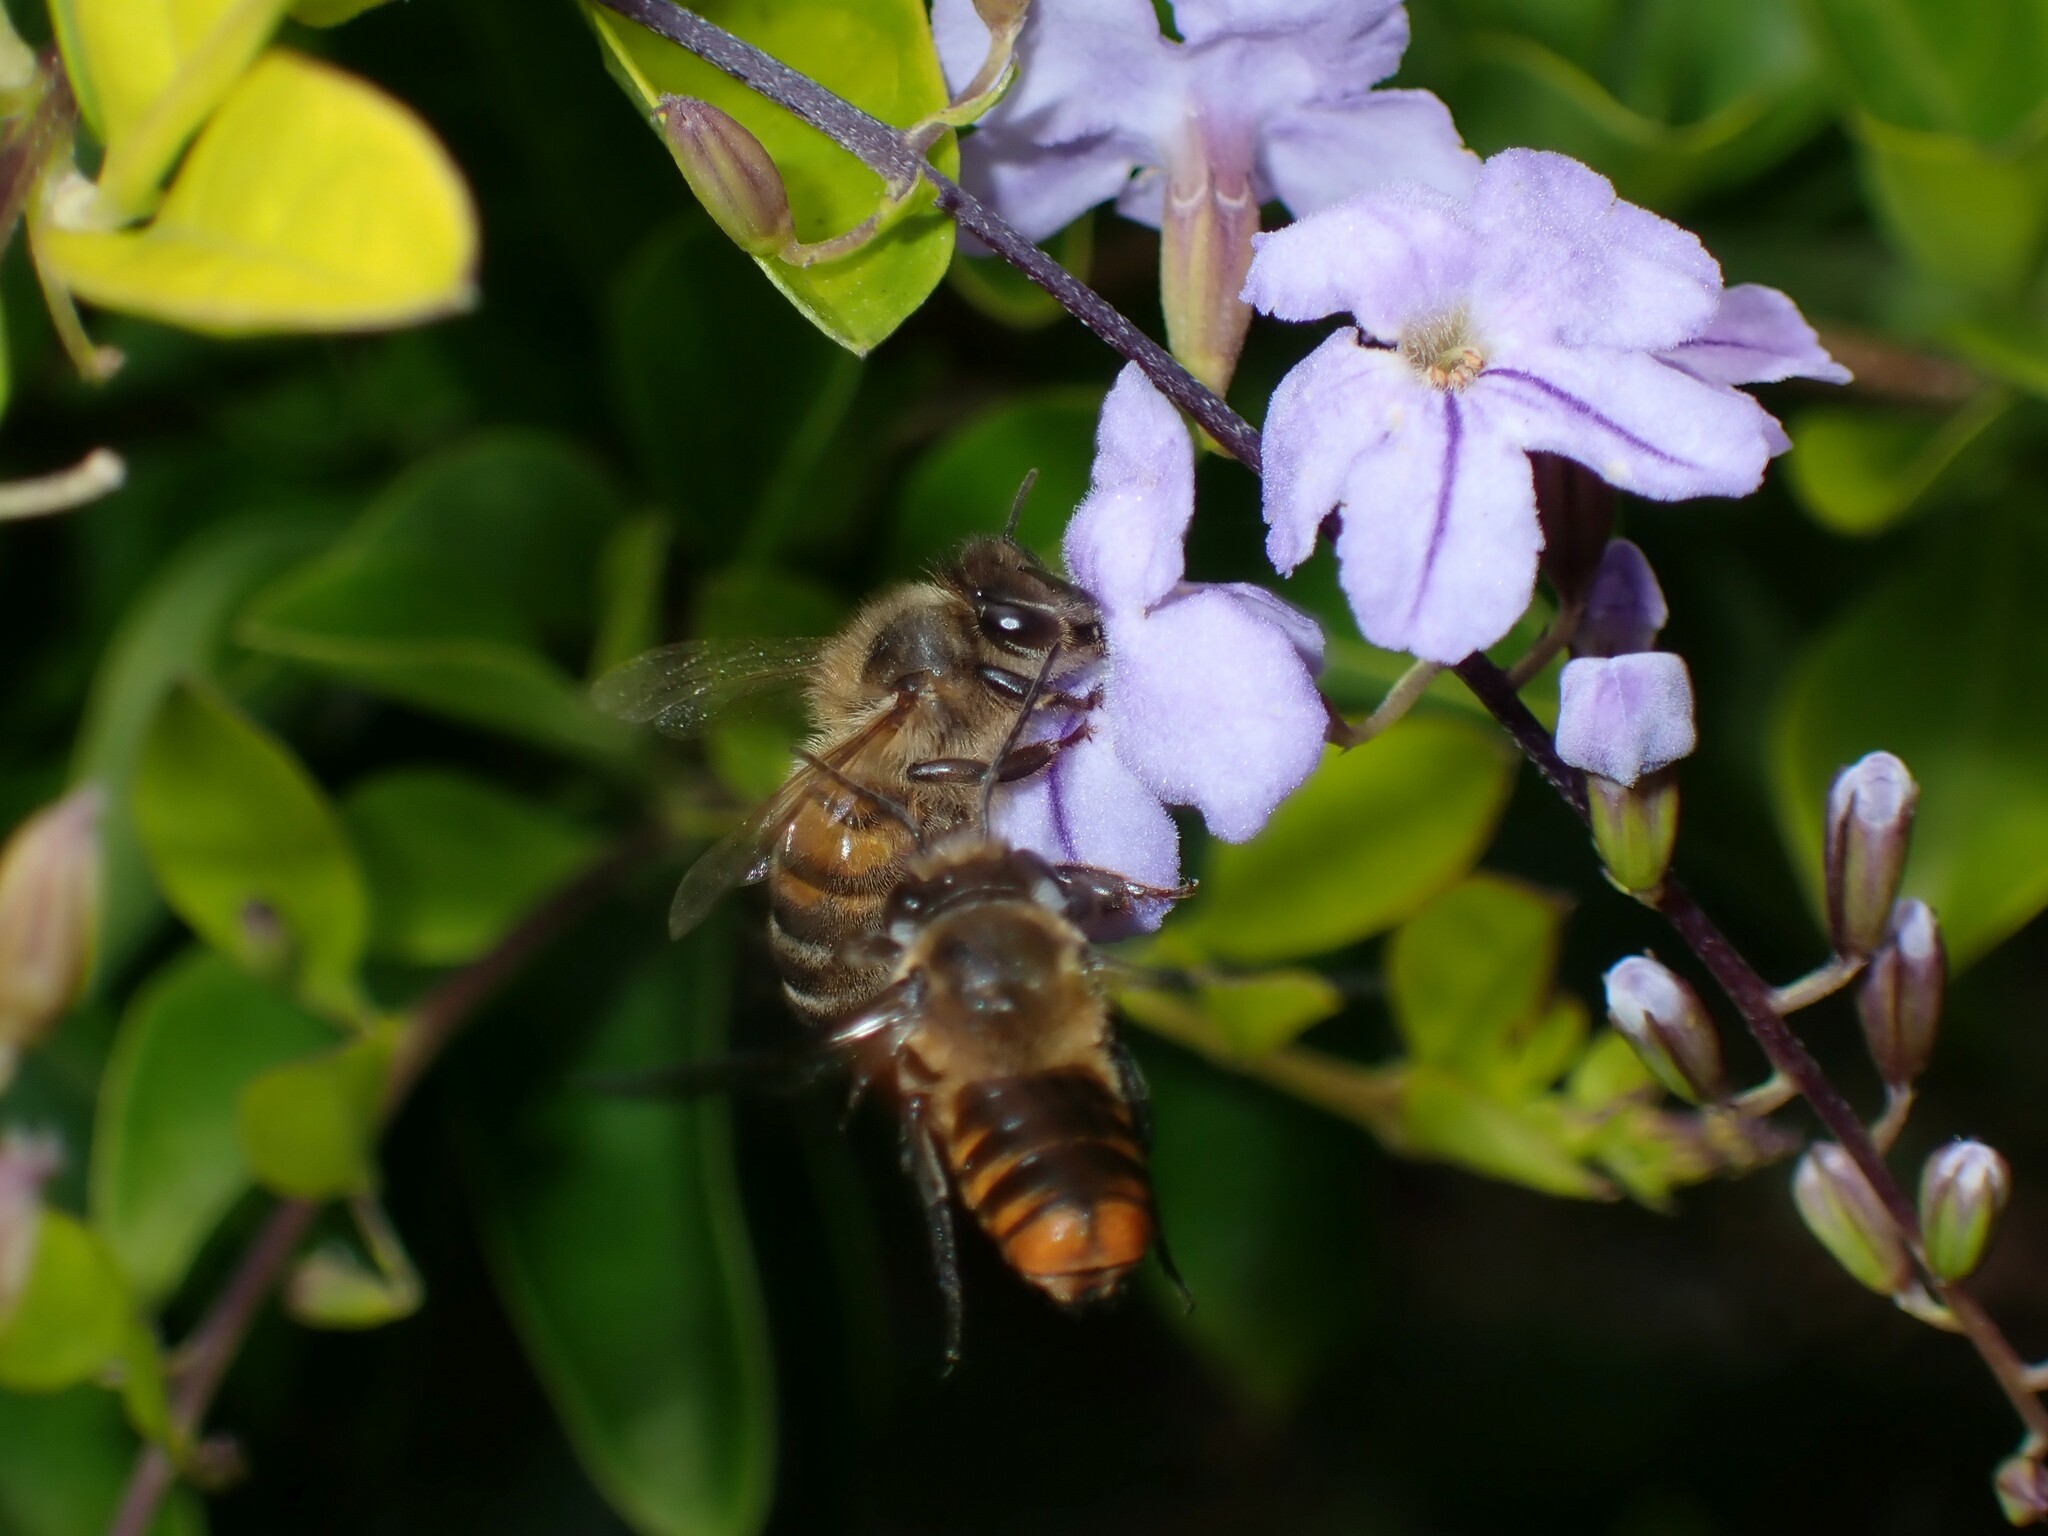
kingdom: Animalia
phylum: Arthropoda
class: Insecta
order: Hymenoptera
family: Apidae
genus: Apis
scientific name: Apis mellifera
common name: Honey bee
